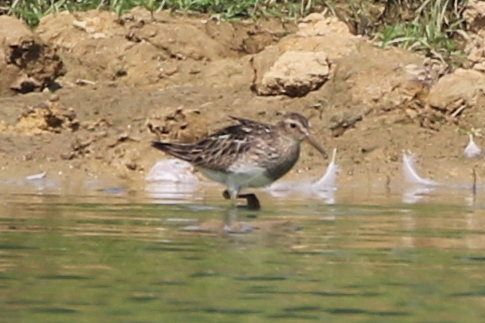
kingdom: Animalia
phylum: Chordata
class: Aves
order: Charadriiformes
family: Scolopacidae
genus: Calidris
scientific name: Calidris melanotos
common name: Pectoral sandpiper
